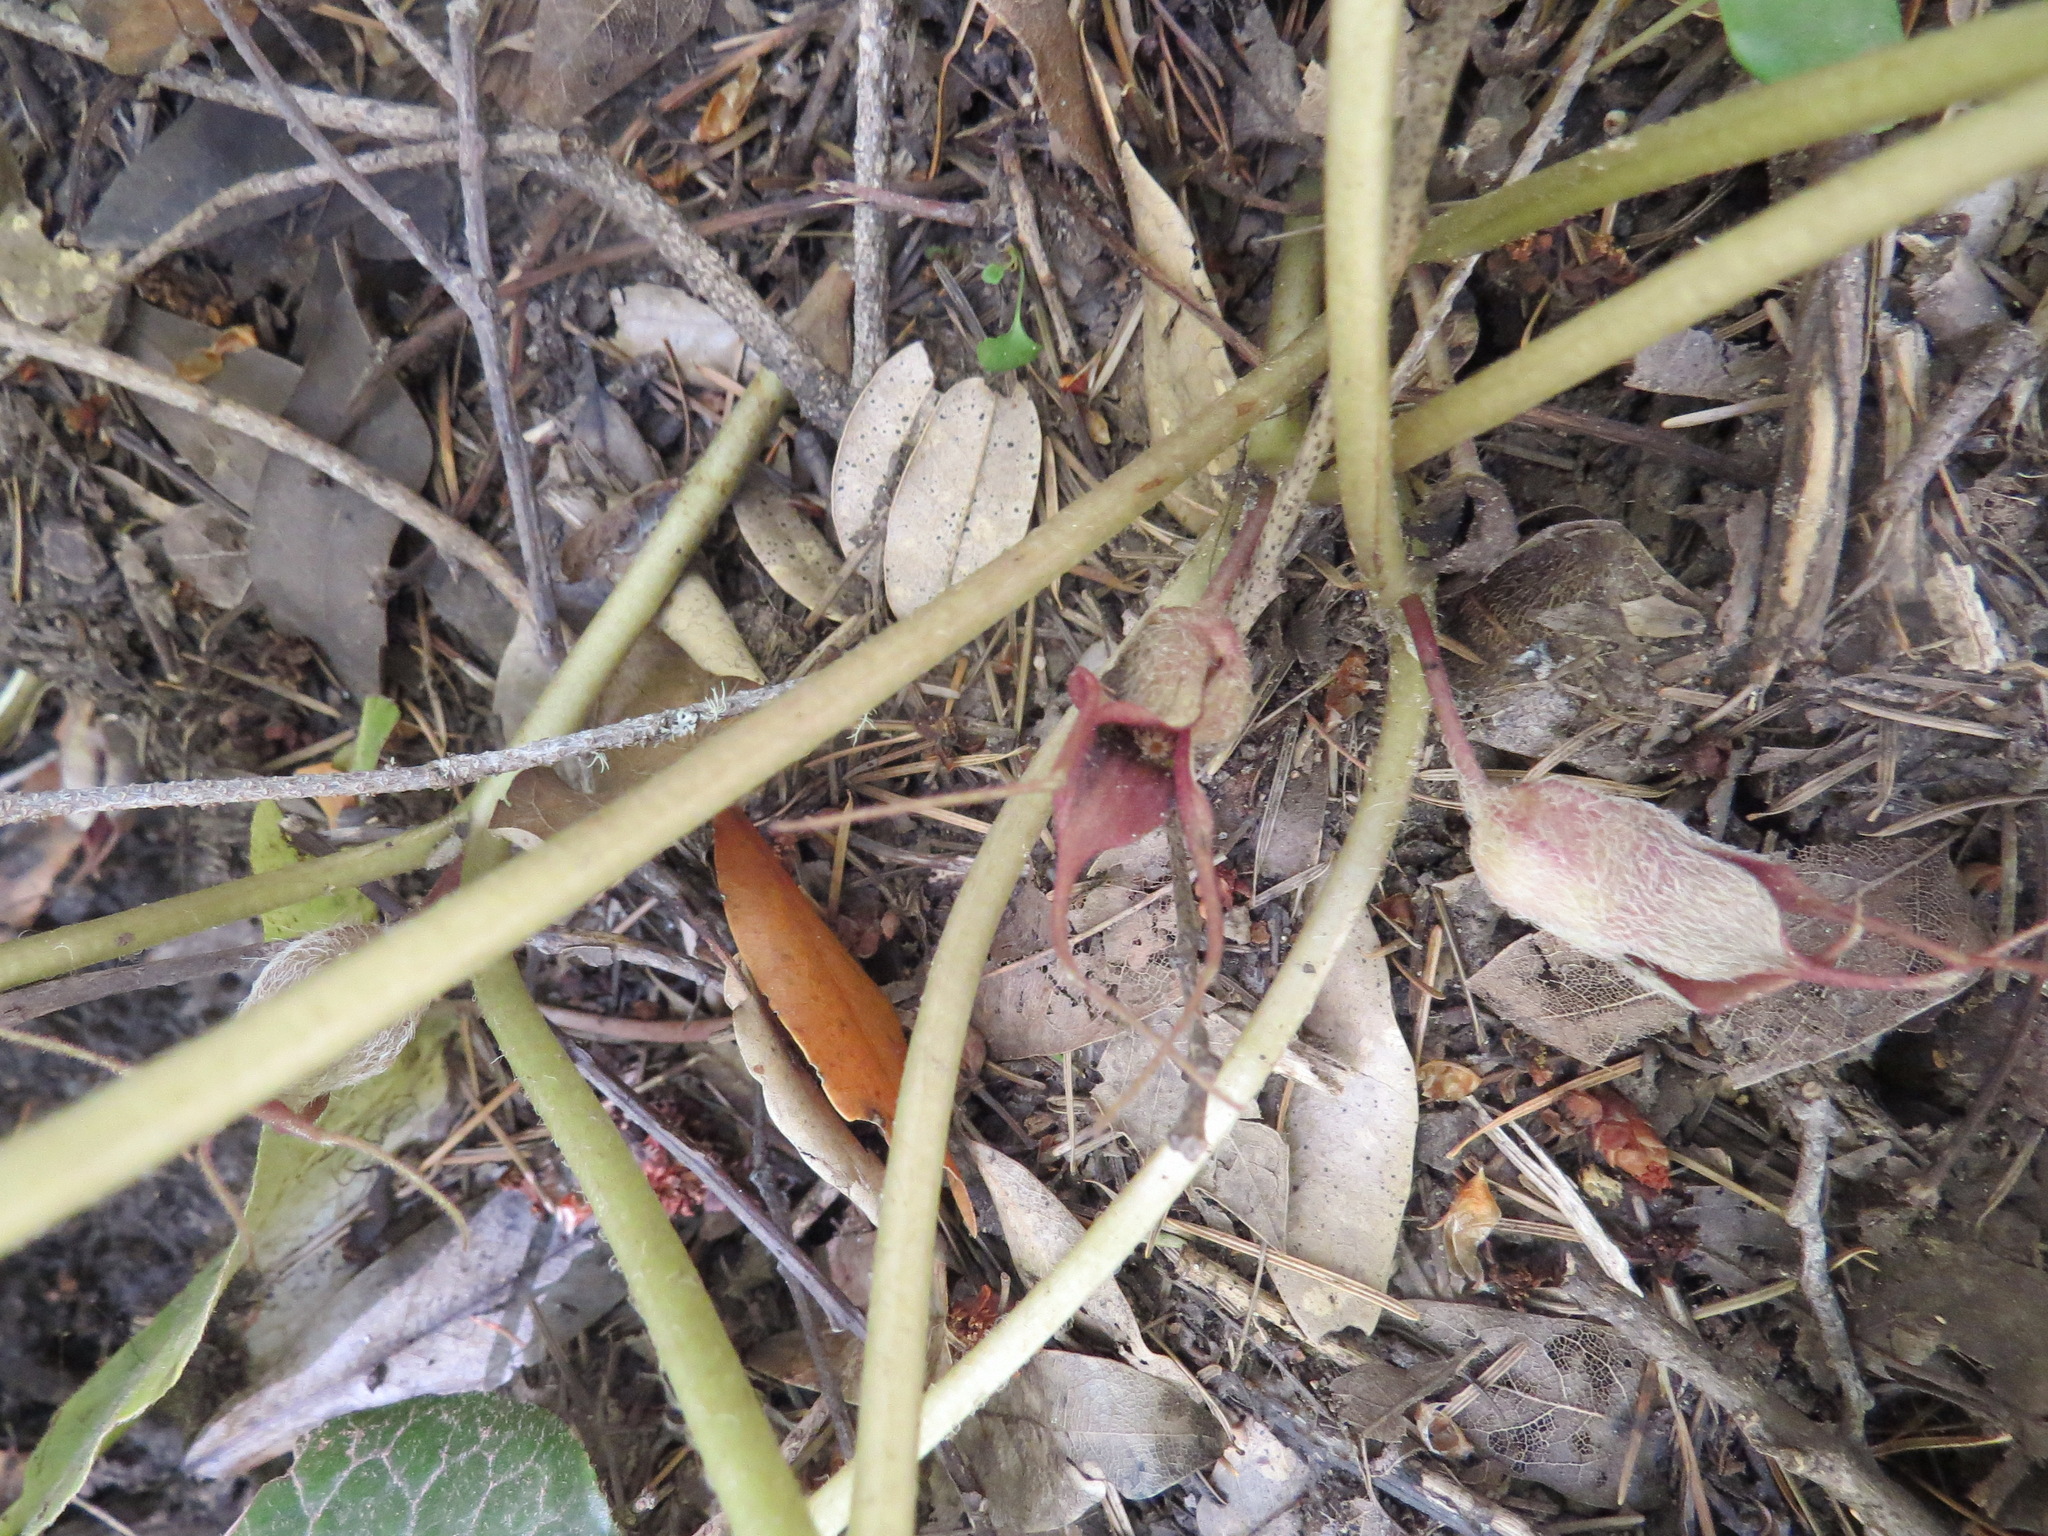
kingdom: Plantae
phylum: Tracheophyta
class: Magnoliopsida
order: Piperales
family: Aristolochiaceae
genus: Asarum
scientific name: Asarum caudatum
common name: Wild ginger
